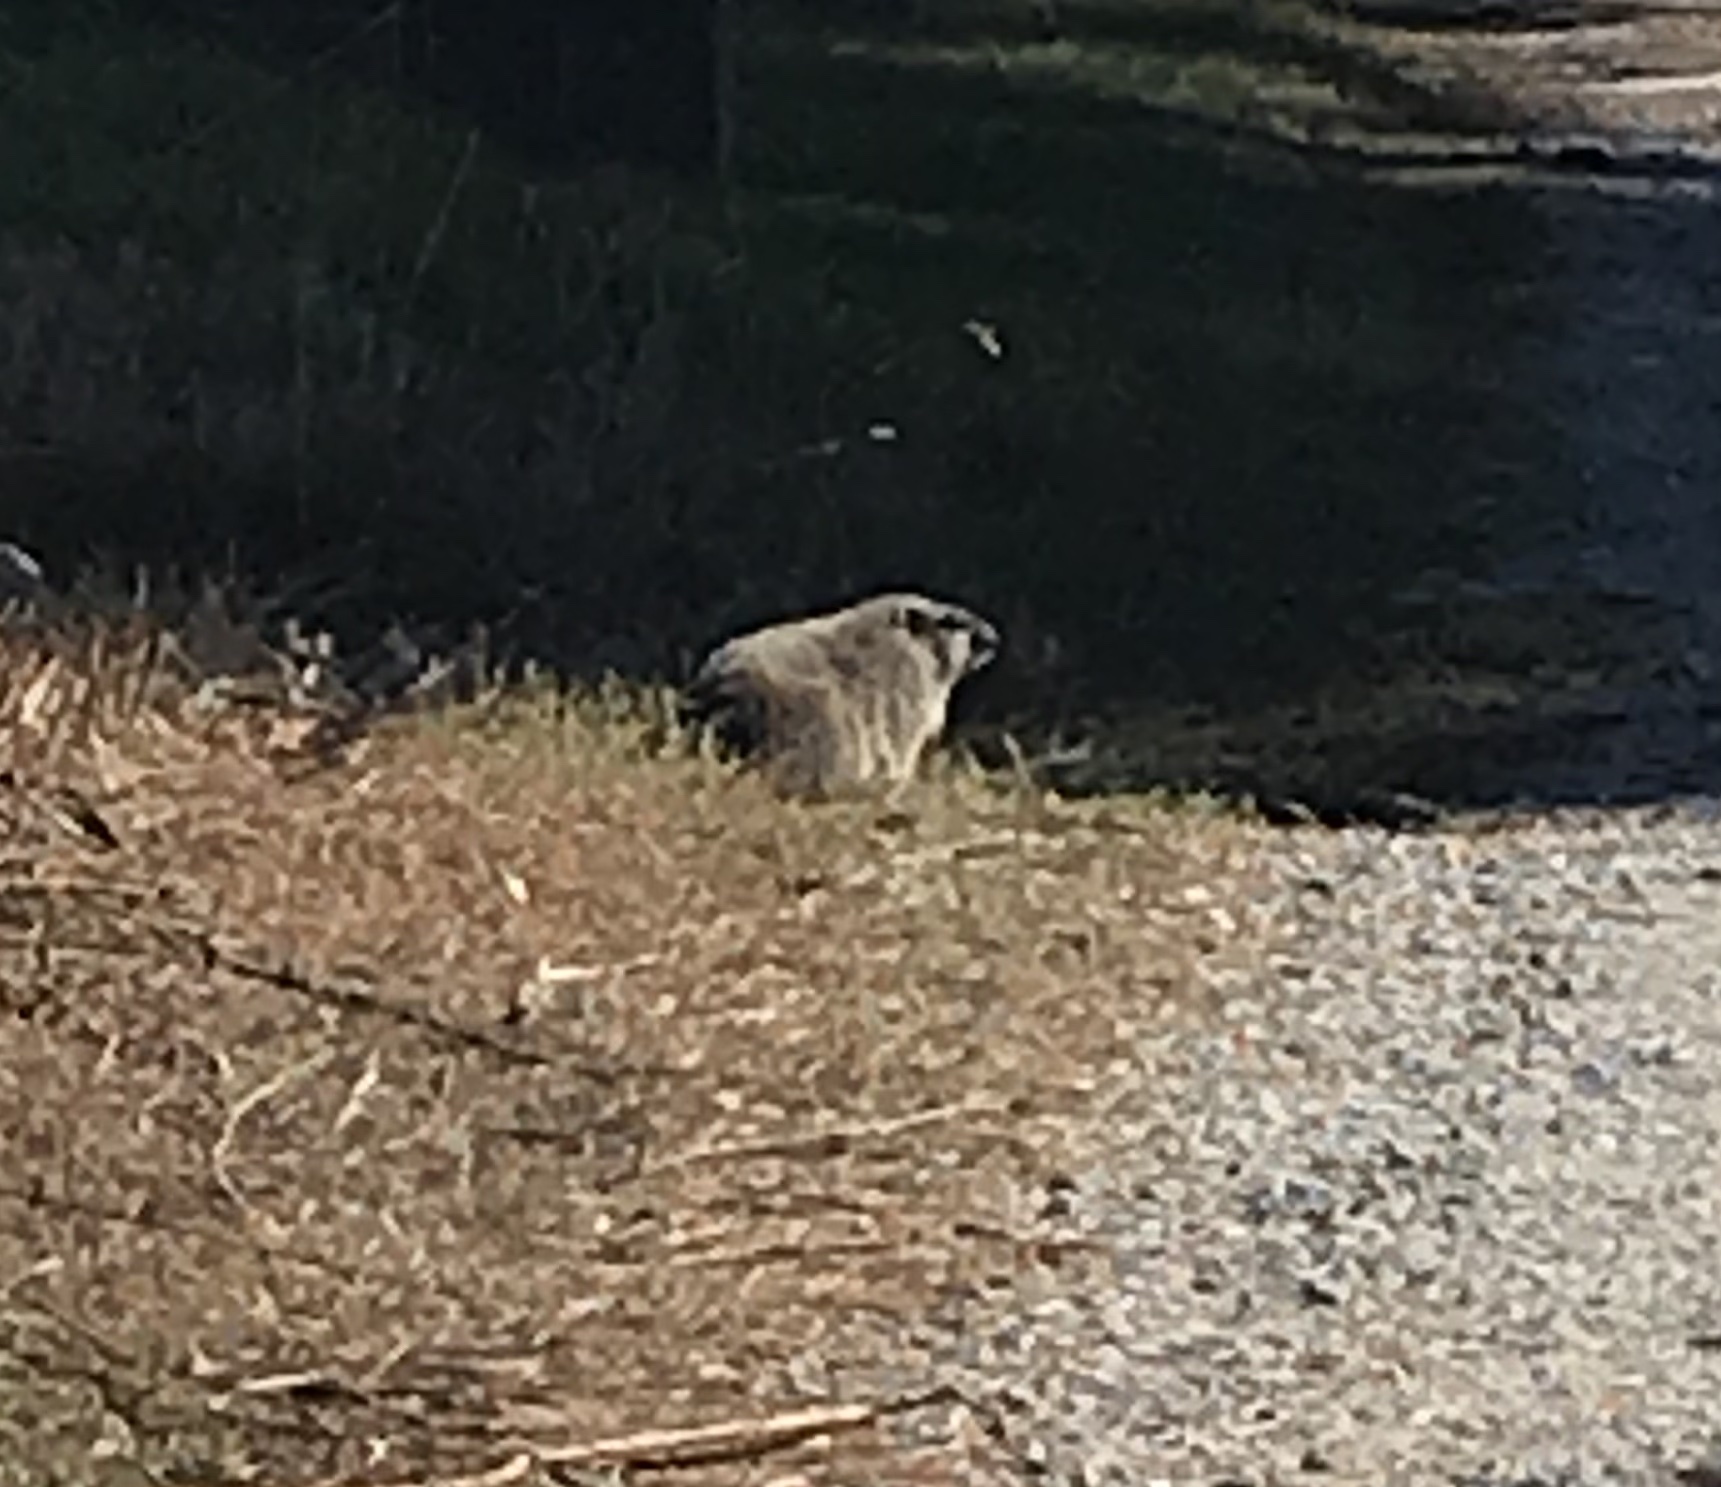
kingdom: Animalia
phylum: Chordata
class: Mammalia
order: Rodentia
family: Sciuridae
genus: Marmota
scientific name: Marmota monax
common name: Groundhog
